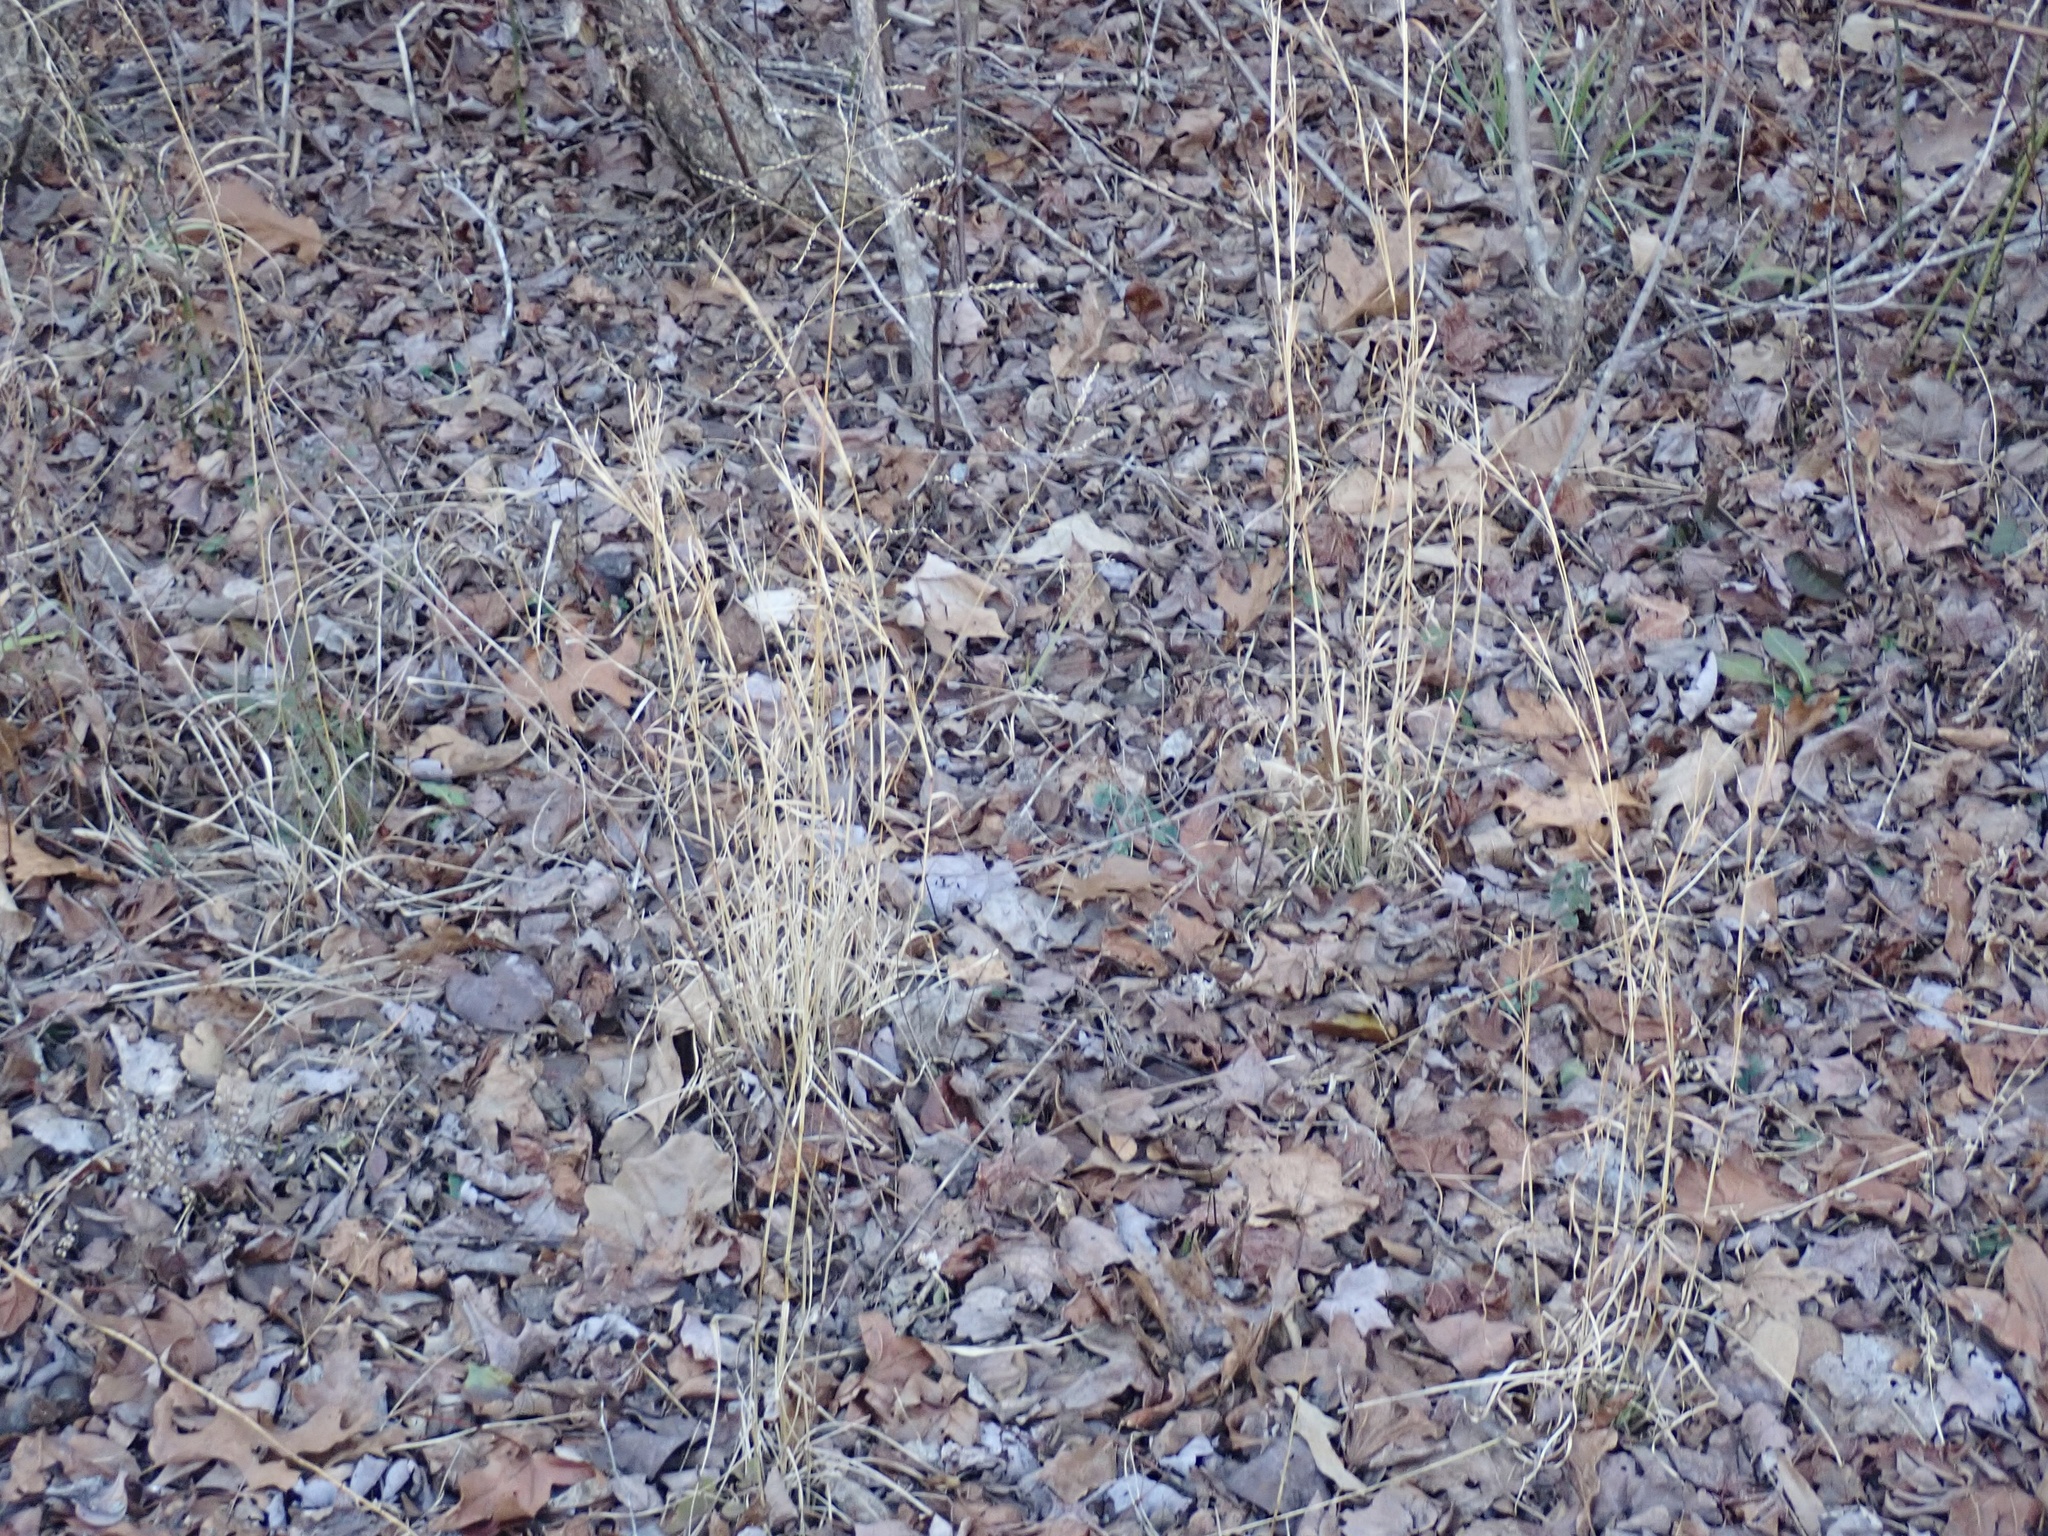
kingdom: Plantae
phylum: Tracheophyta
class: Liliopsida
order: Poales
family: Poaceae
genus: Andropogon
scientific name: Andropogon virginicus
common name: Broomsedge bluestem
